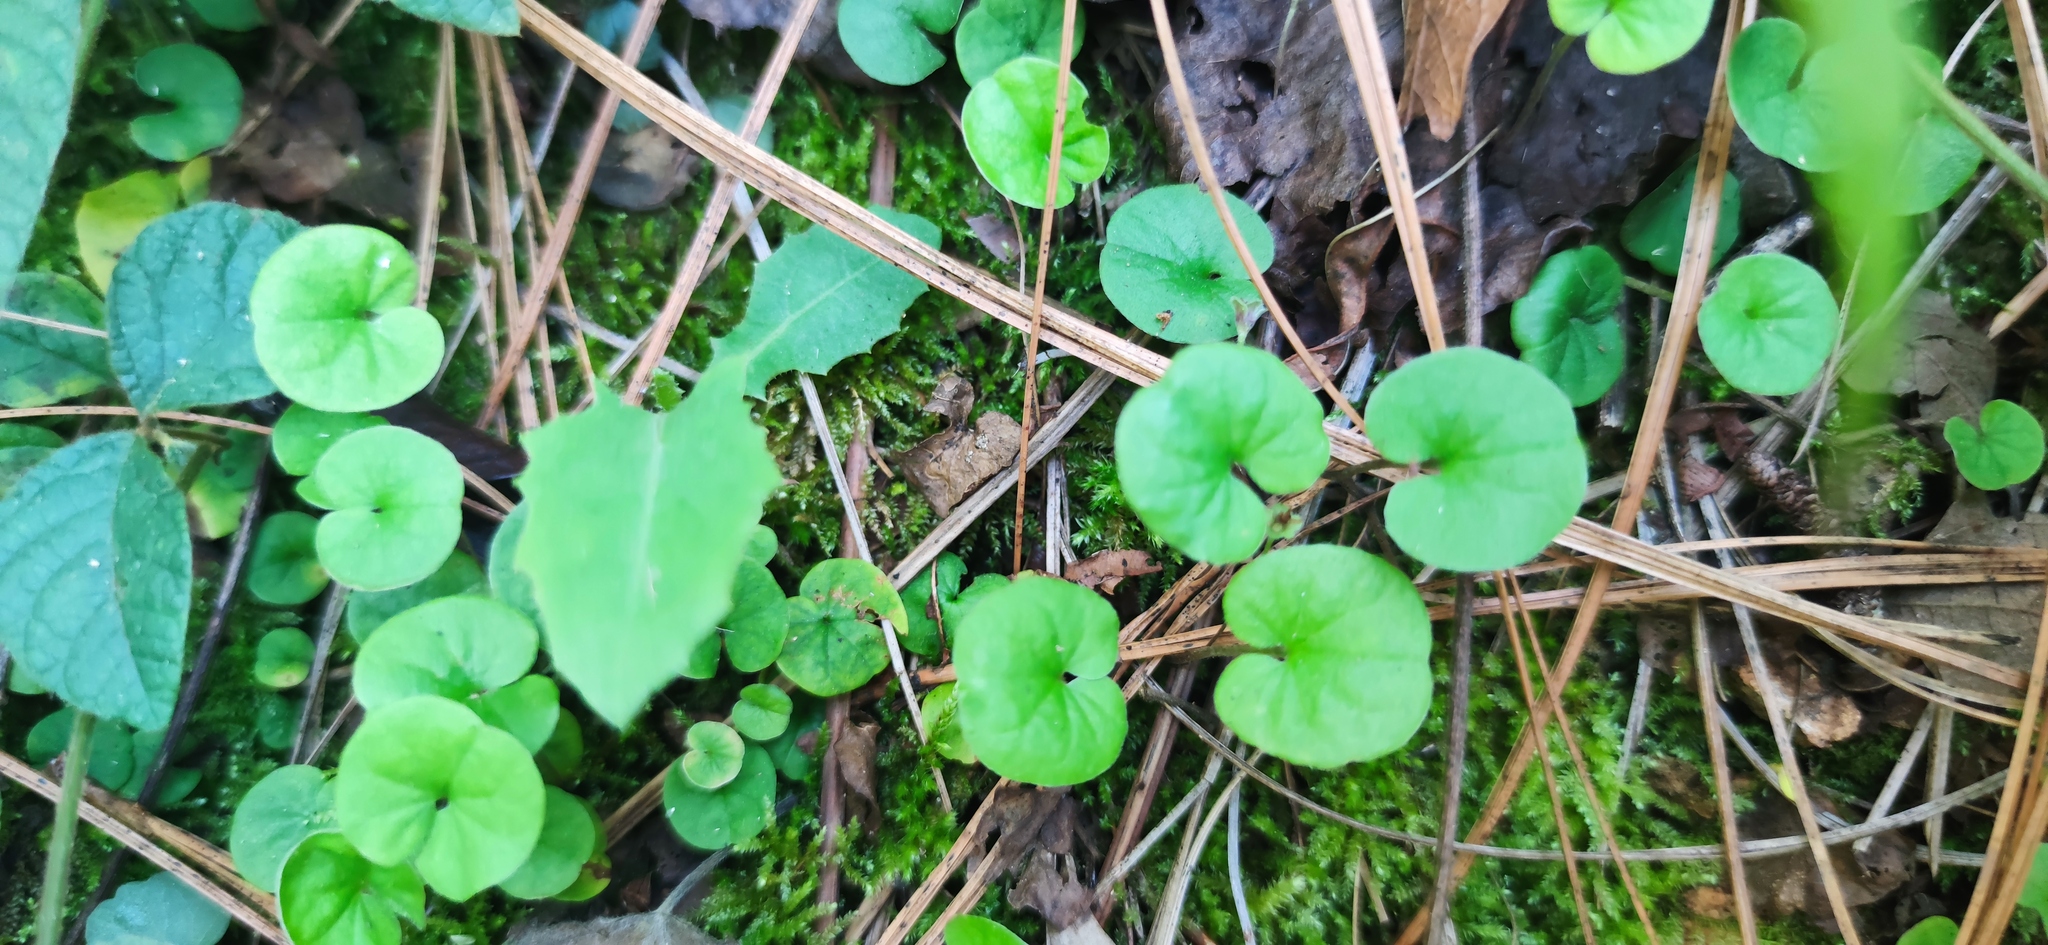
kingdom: Plantae
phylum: Tracheophyta
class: Magnoliopsida
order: Solanales
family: Convolvulaceae
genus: Dichondra
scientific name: Dichondra repens
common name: Kidneyweed
